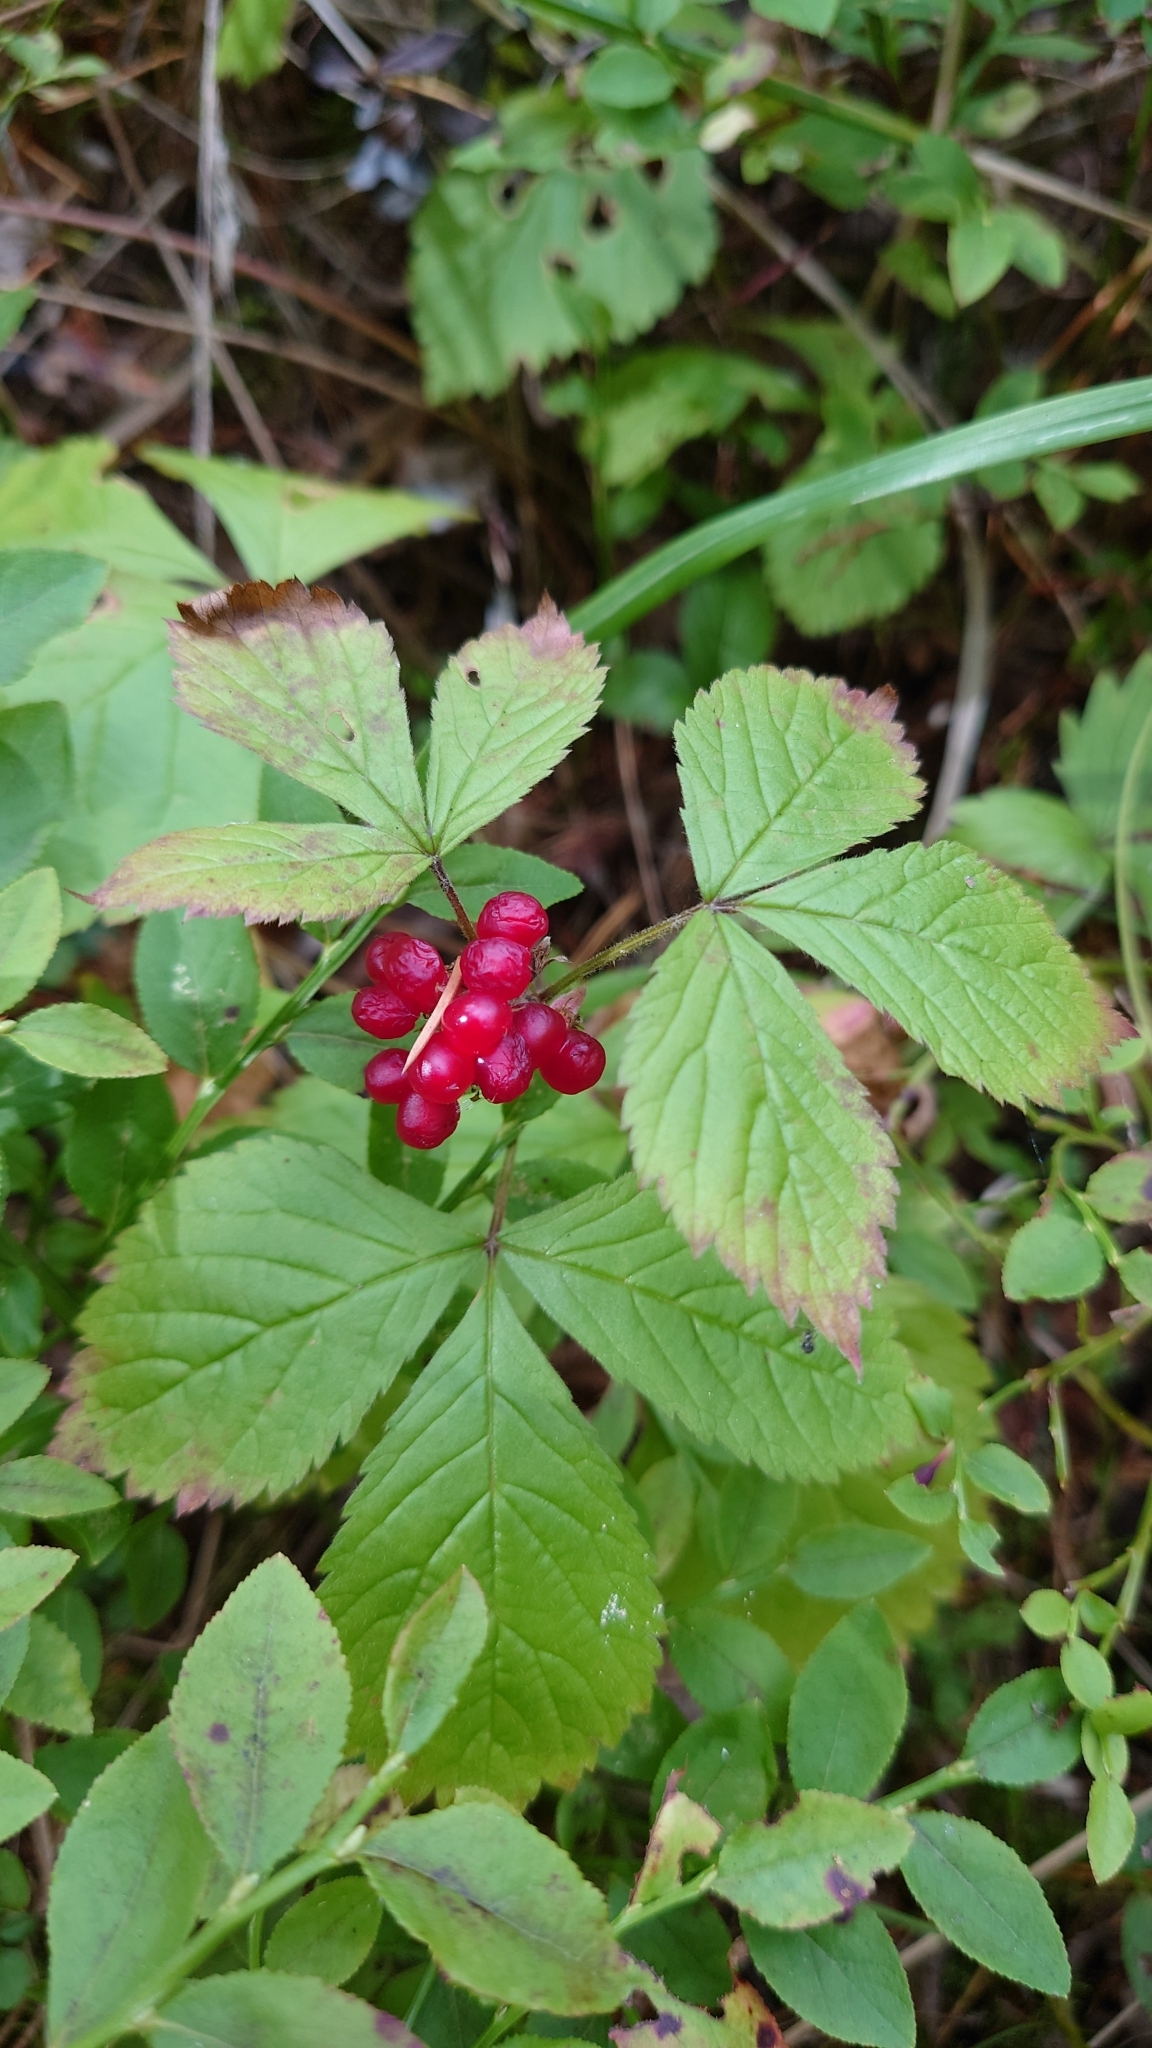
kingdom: Plantae
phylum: Tracheophyta
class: Magnoliopsida
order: Rosales
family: Rosaceae
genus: Rubus
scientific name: Rubus saxatilis
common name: Stone bramble
